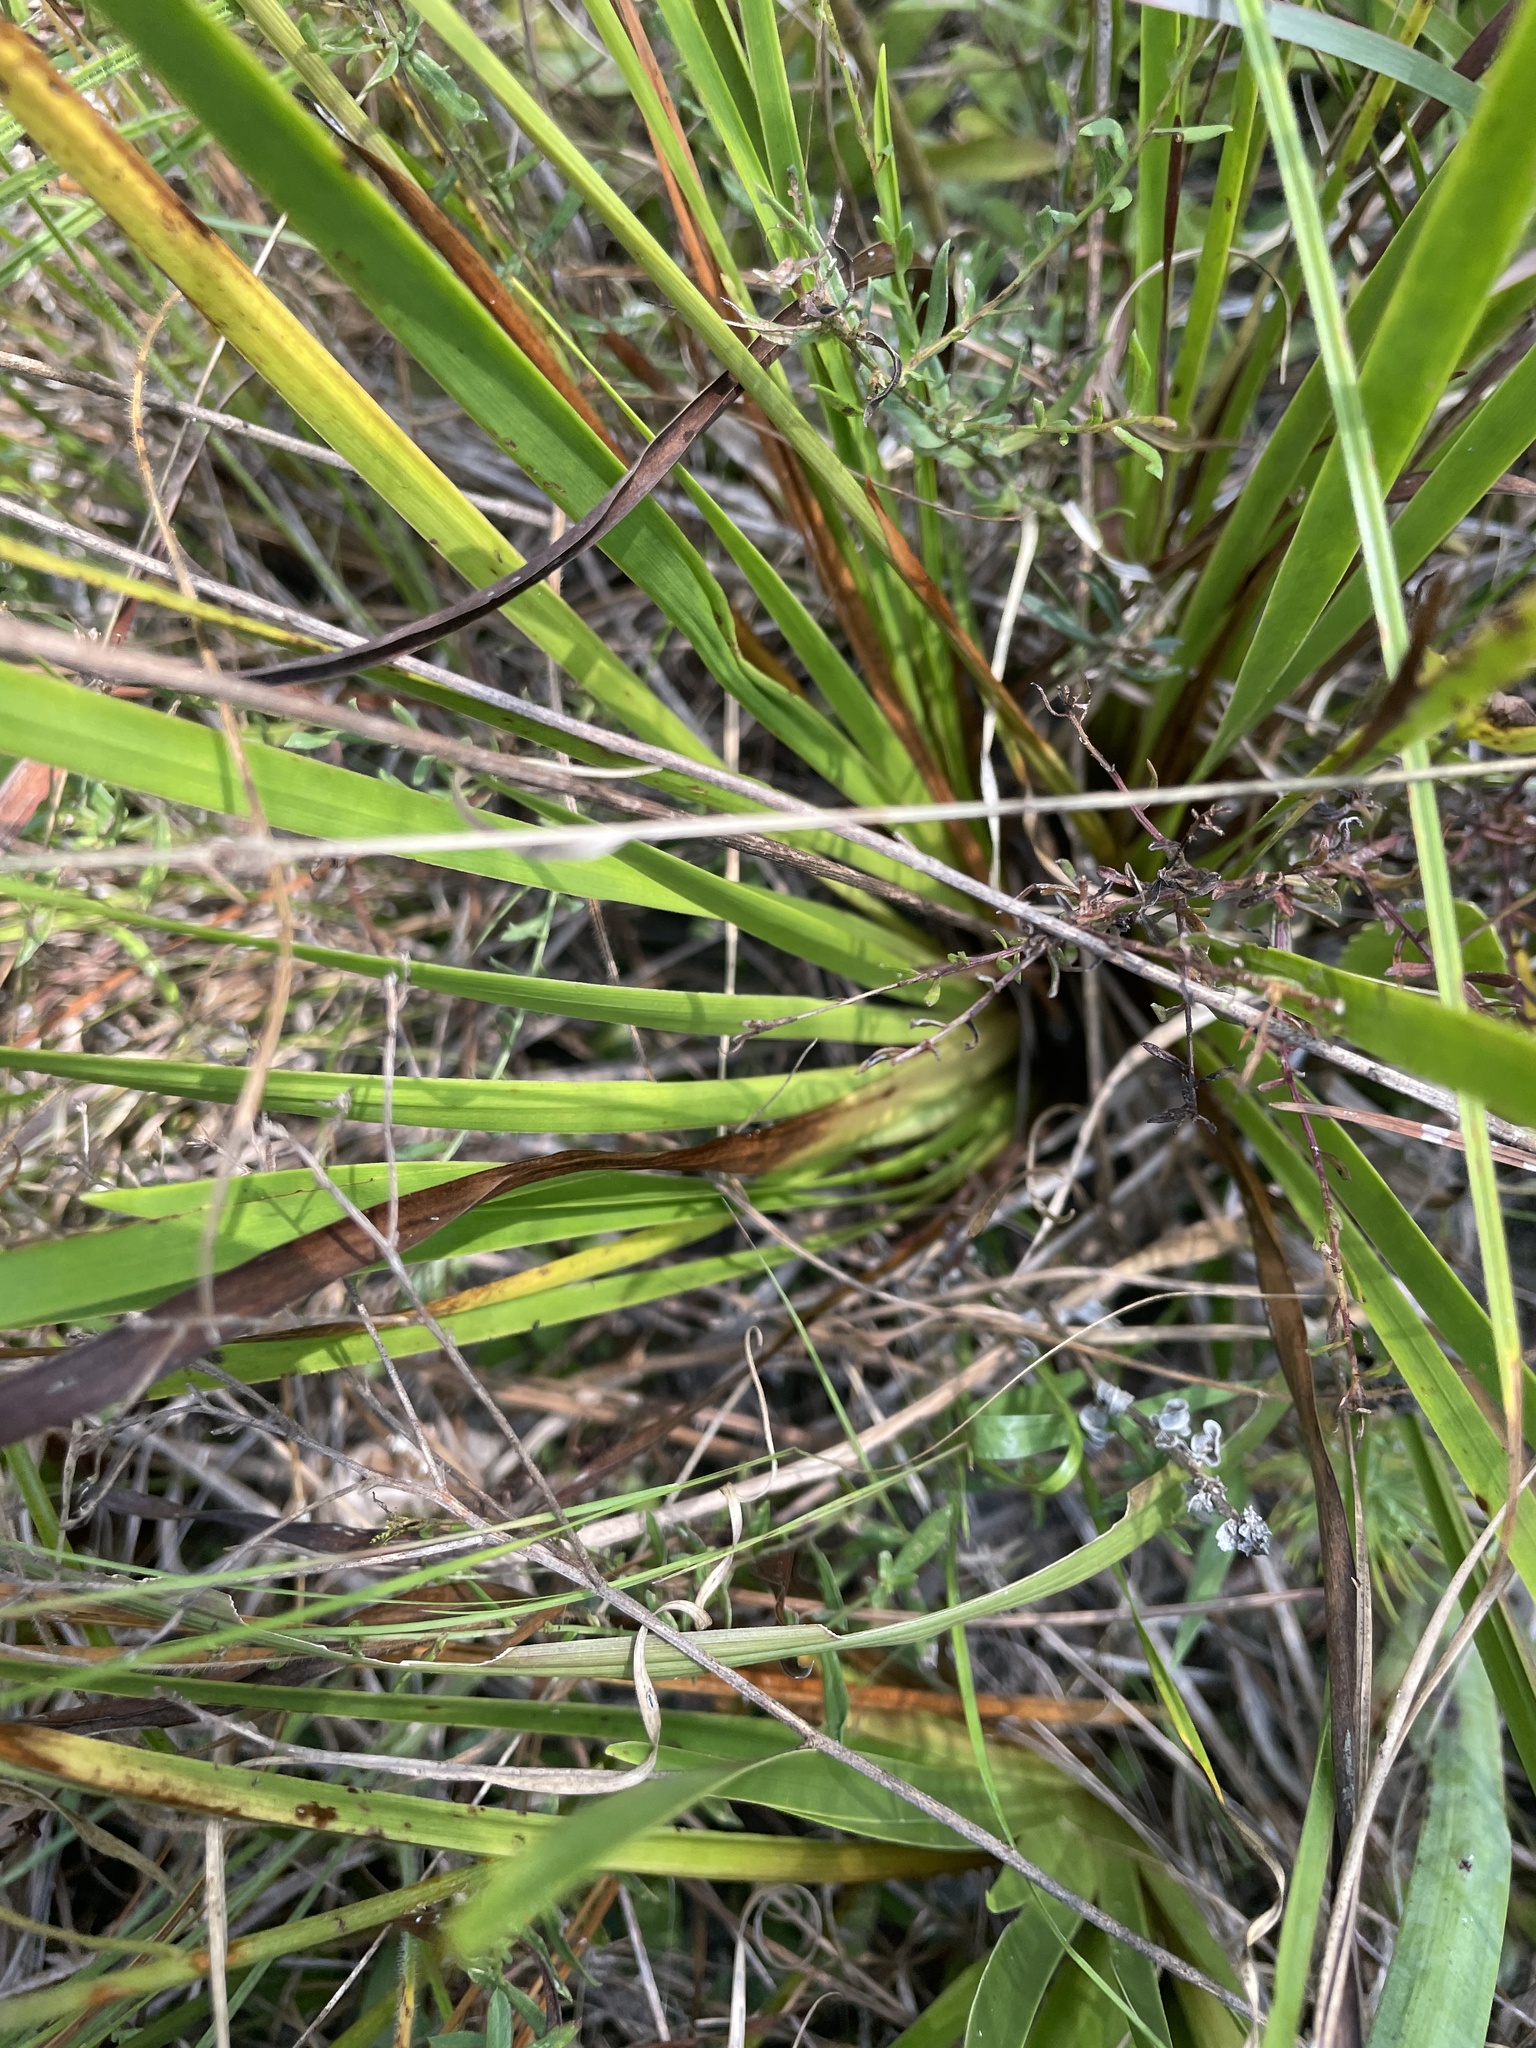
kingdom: Plantae
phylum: Tracheophyta
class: Liliopsida
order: Poales
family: Xyridaceae
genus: Xyris
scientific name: Xyris ambigua
